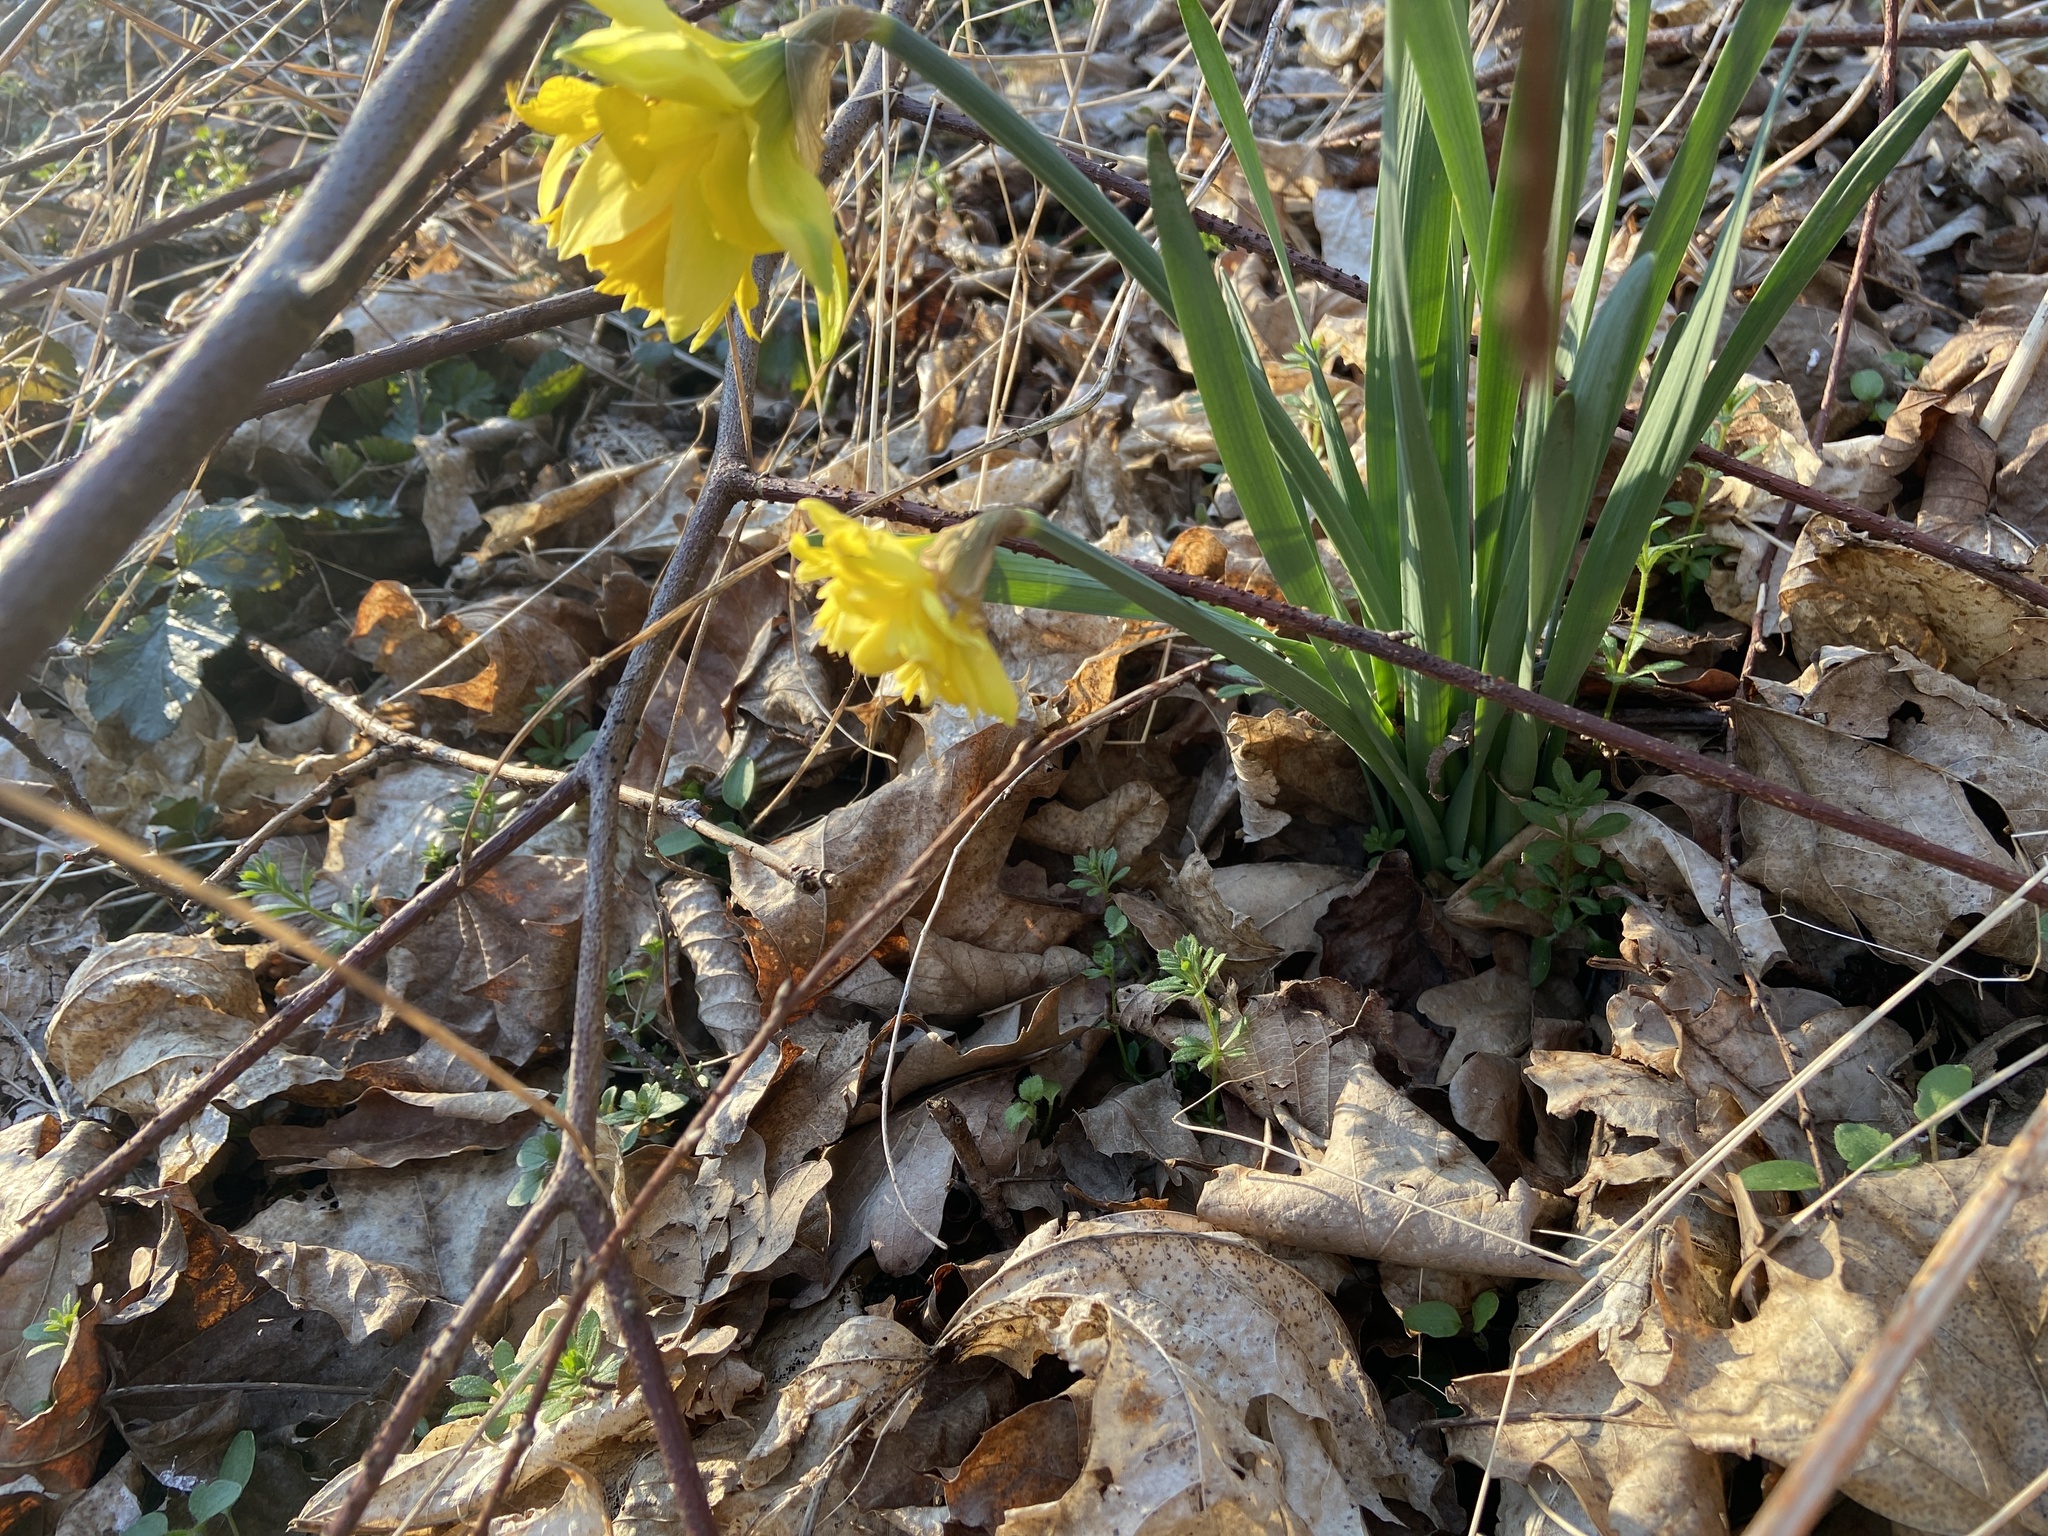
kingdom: Plantae
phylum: Tracheophyta
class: Liliopsida
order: Asparagales
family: Amaryllidaceae
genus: Narcissus
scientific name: Narcissus pseudonarcissus
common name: Daffodil
